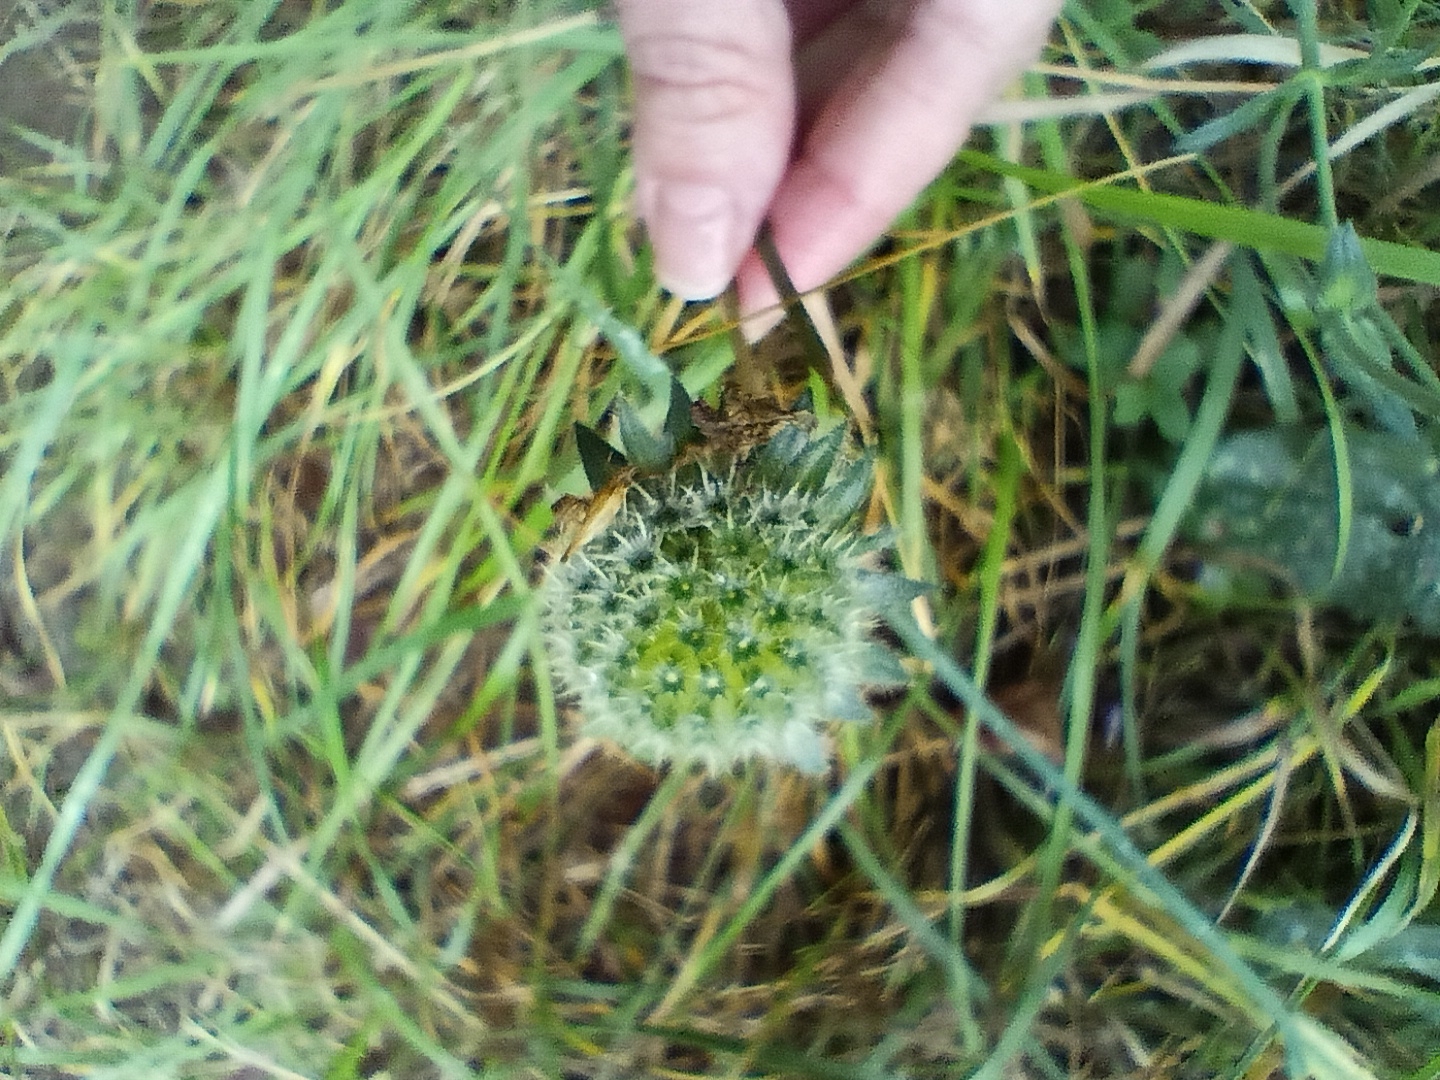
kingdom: Plantae
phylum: Tracheophyta
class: Magnoliopsida
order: Dipsacales
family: Caprifoliaceae
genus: Knautia
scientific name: Knautia arvensis
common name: Field scabiosa
